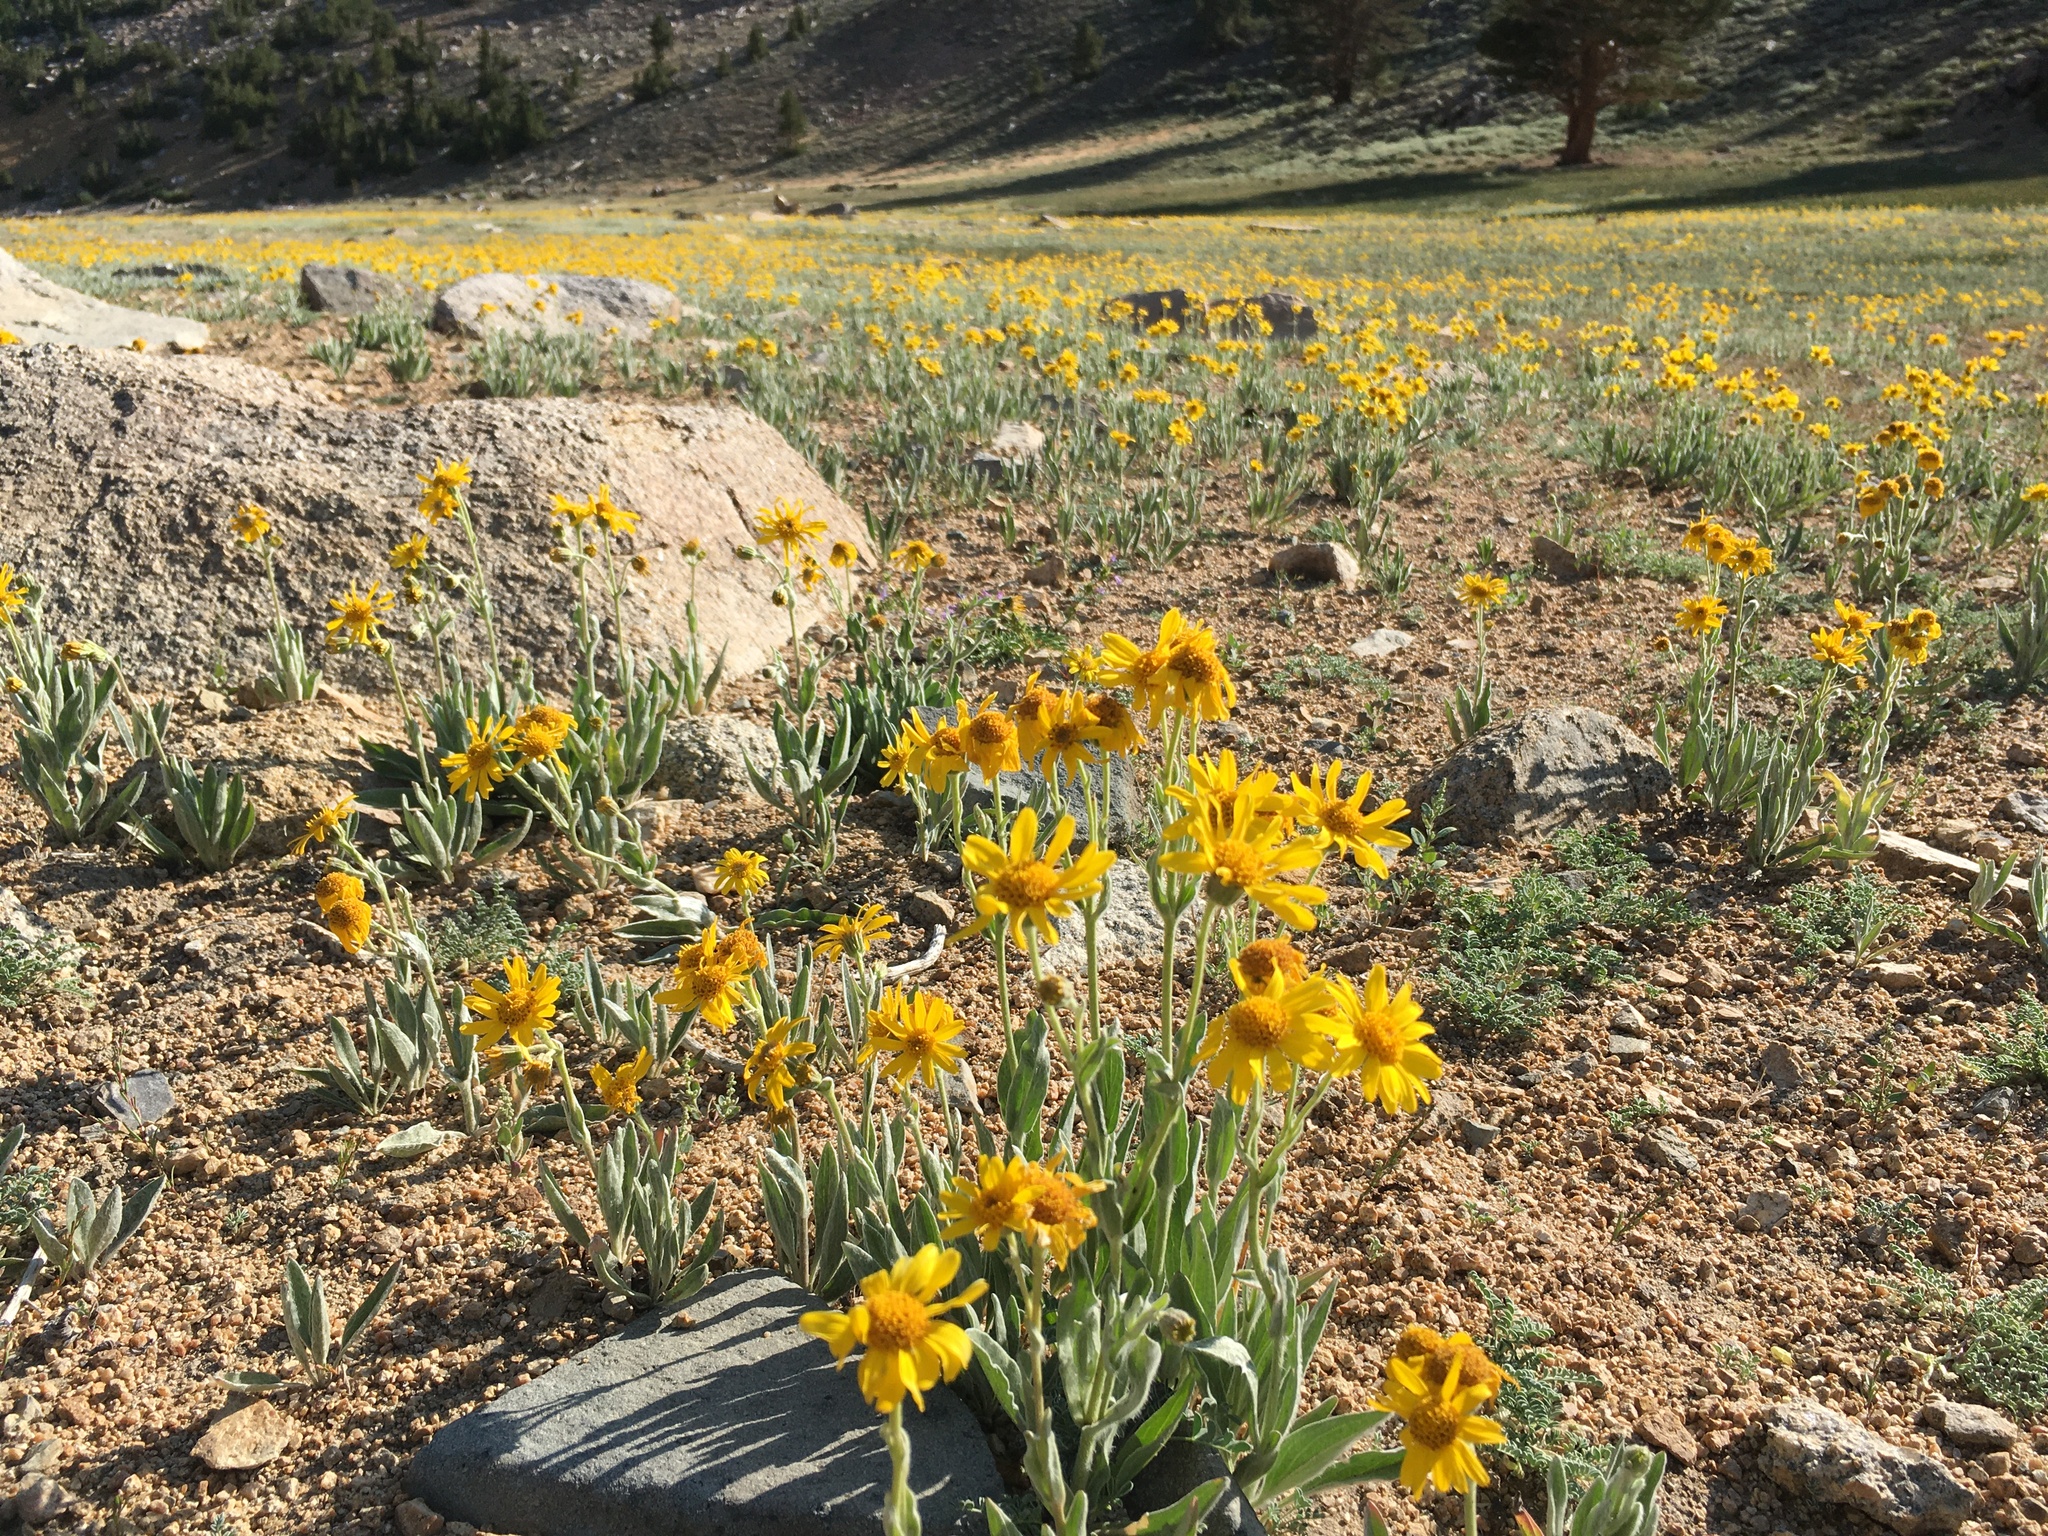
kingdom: Plantae
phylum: Tracheophyta
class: Magnoliopsida
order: Asterales
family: Asteraceae
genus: Arnica
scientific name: Arnica parryi
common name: Parry's arnica
